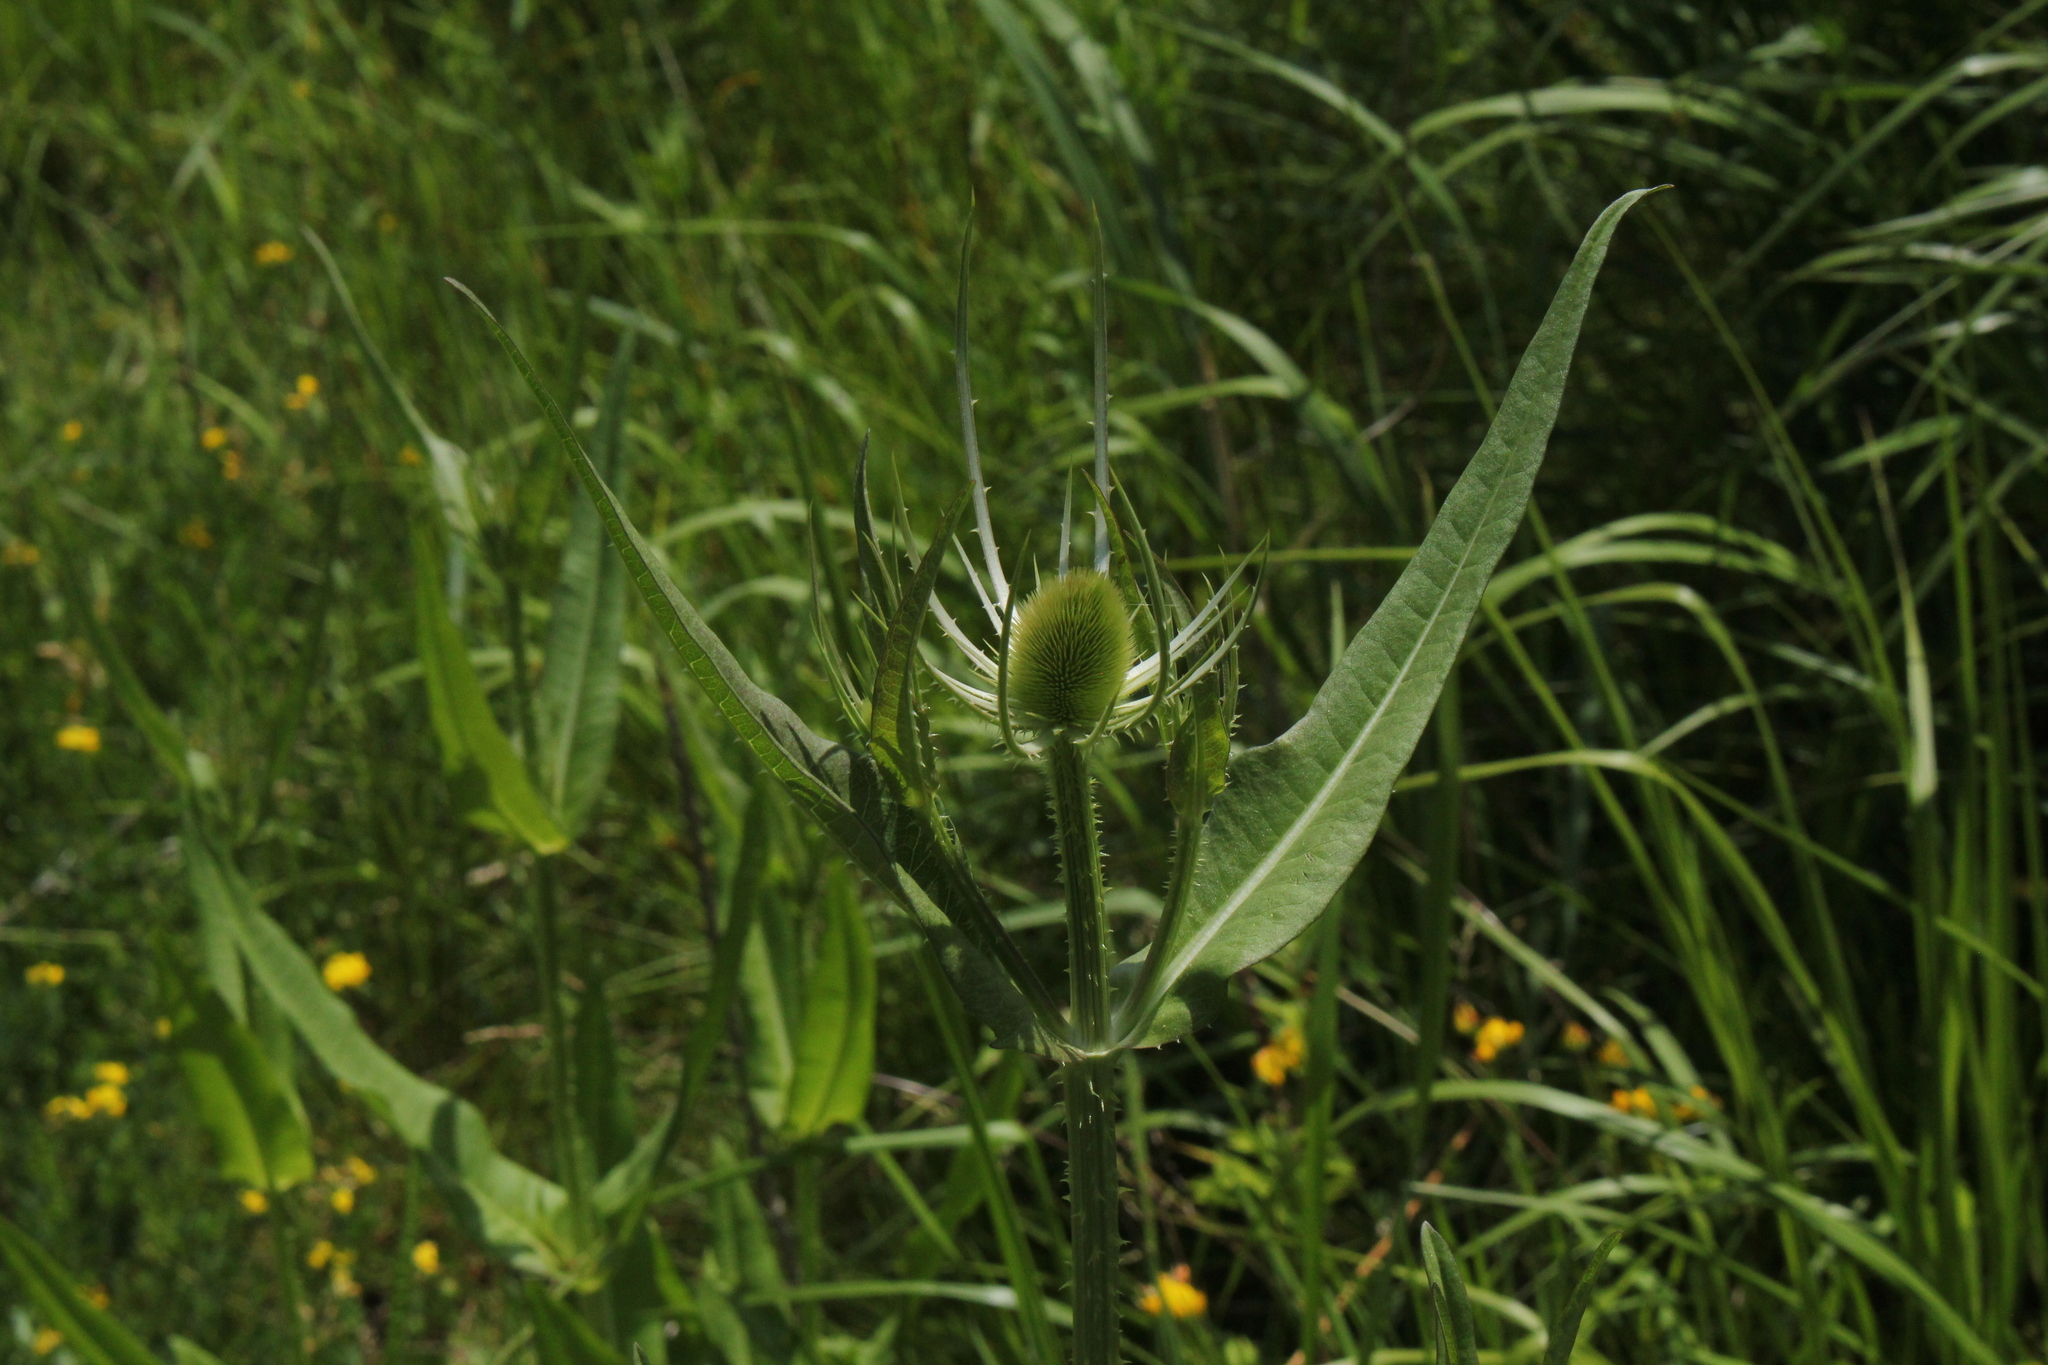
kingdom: Plantae
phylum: Tracheophyta
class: Magnoliopsida
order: Dipsacales
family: Caprifoliaceae
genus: Dipsacus
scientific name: Dipsacus fullonum
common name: Teasel
